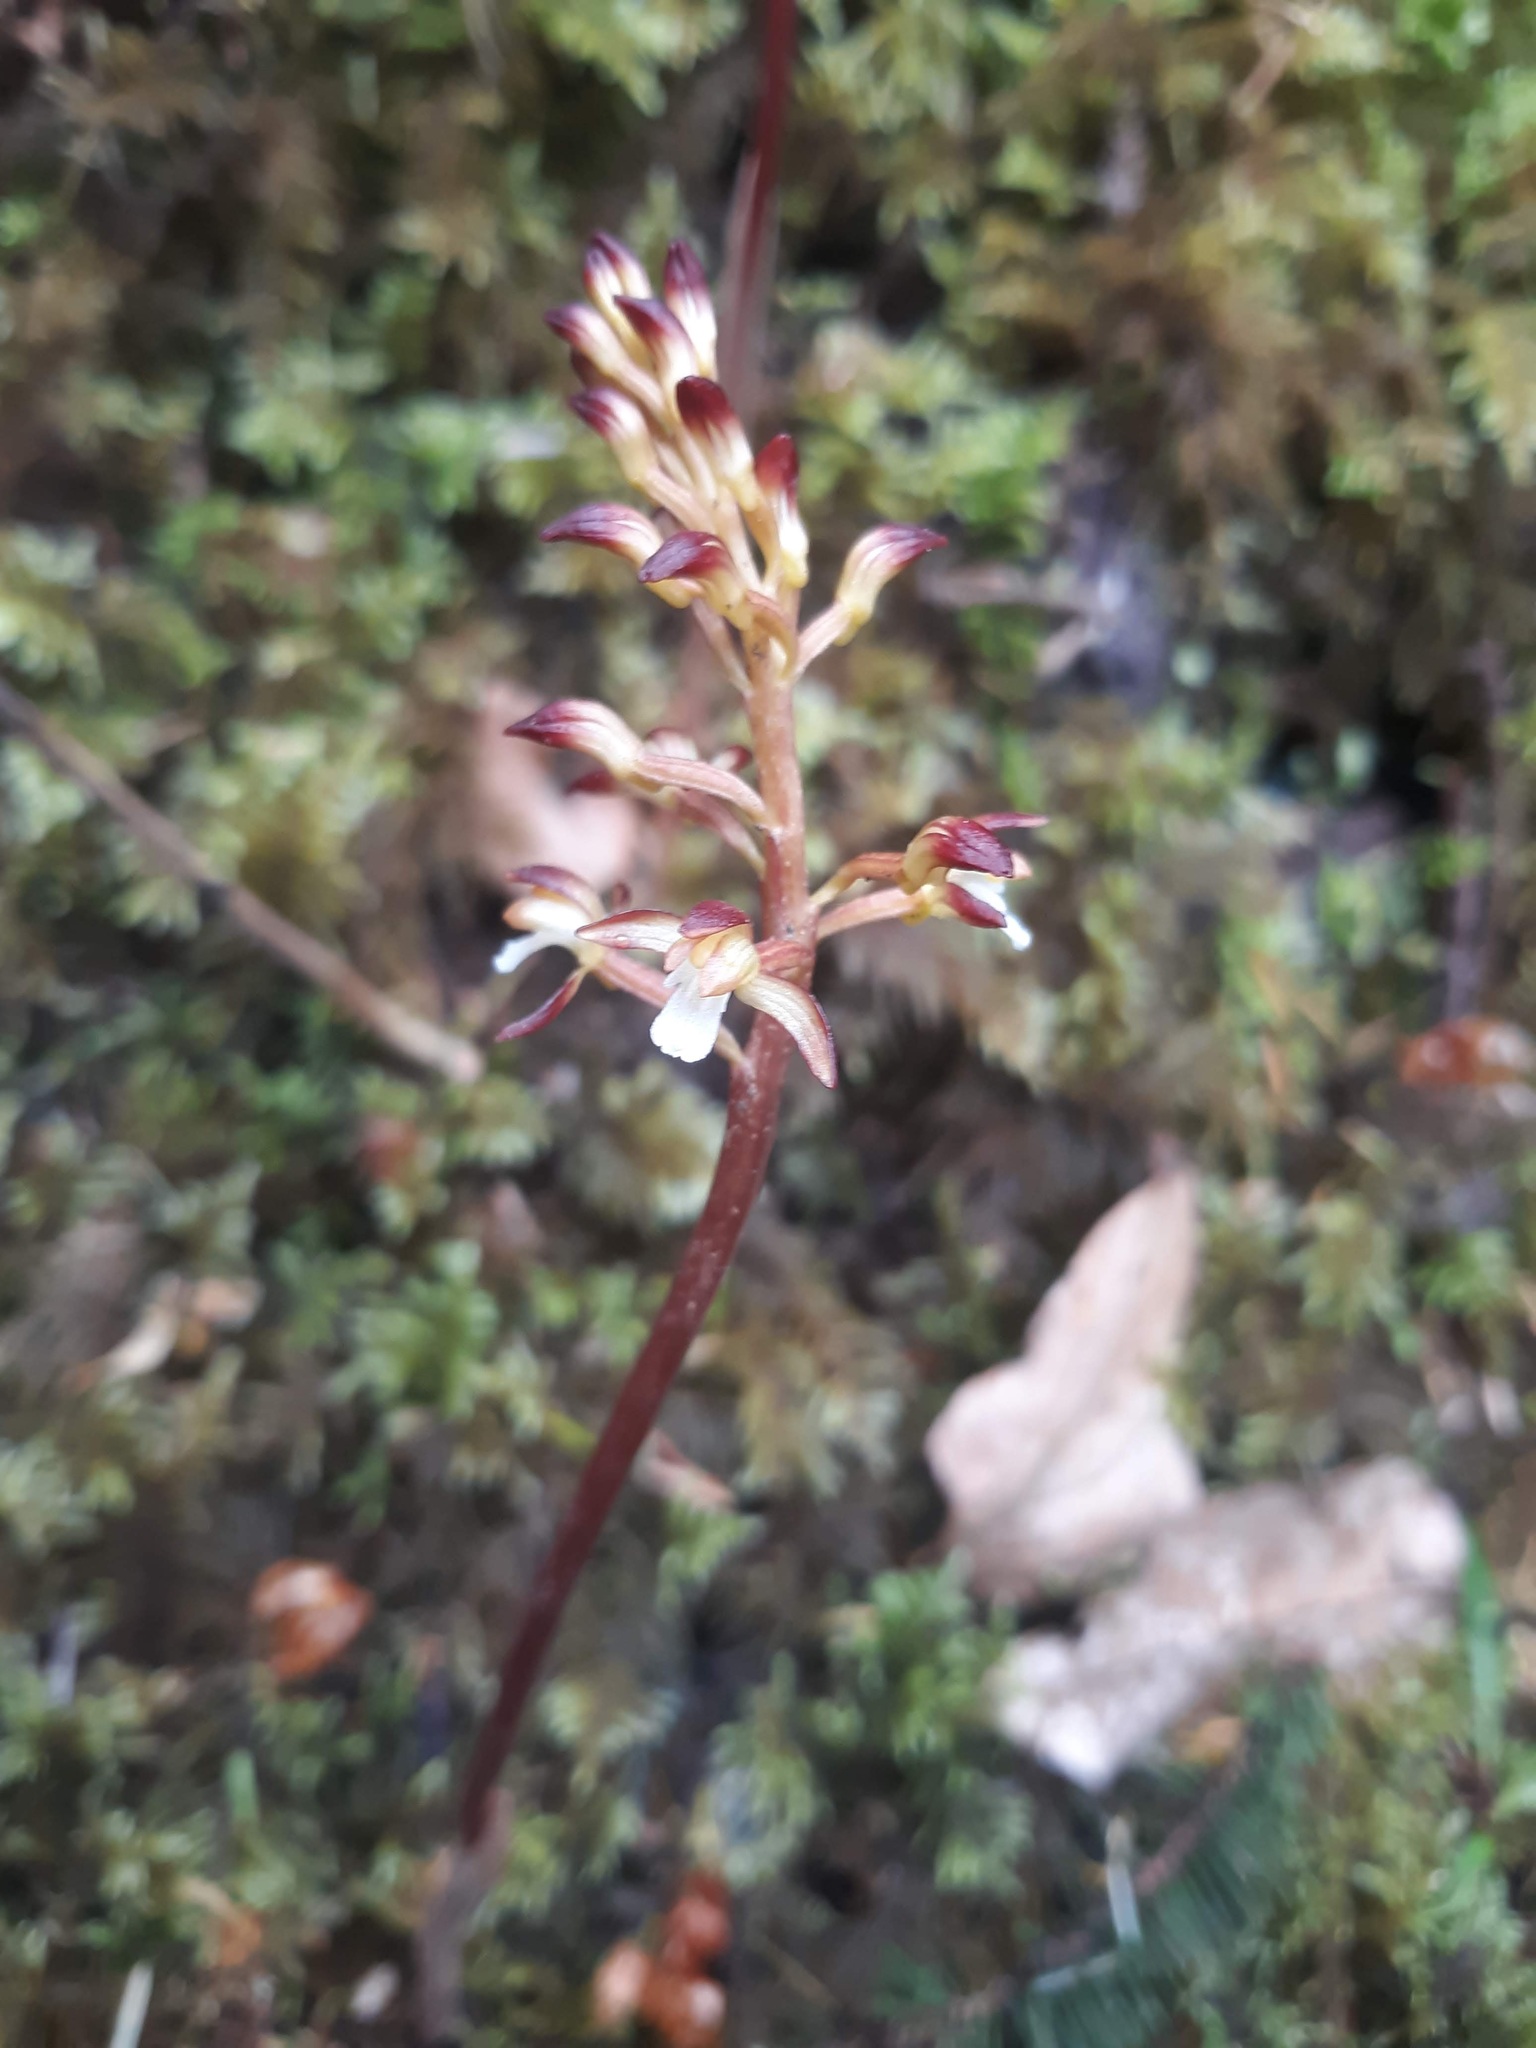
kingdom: Plantae
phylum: Tracheophyta
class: Liliopsida
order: Asparagales
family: Orchidaceae
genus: Corallorhiza
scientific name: Corallorhiza maculata
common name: Spotted coralroot
